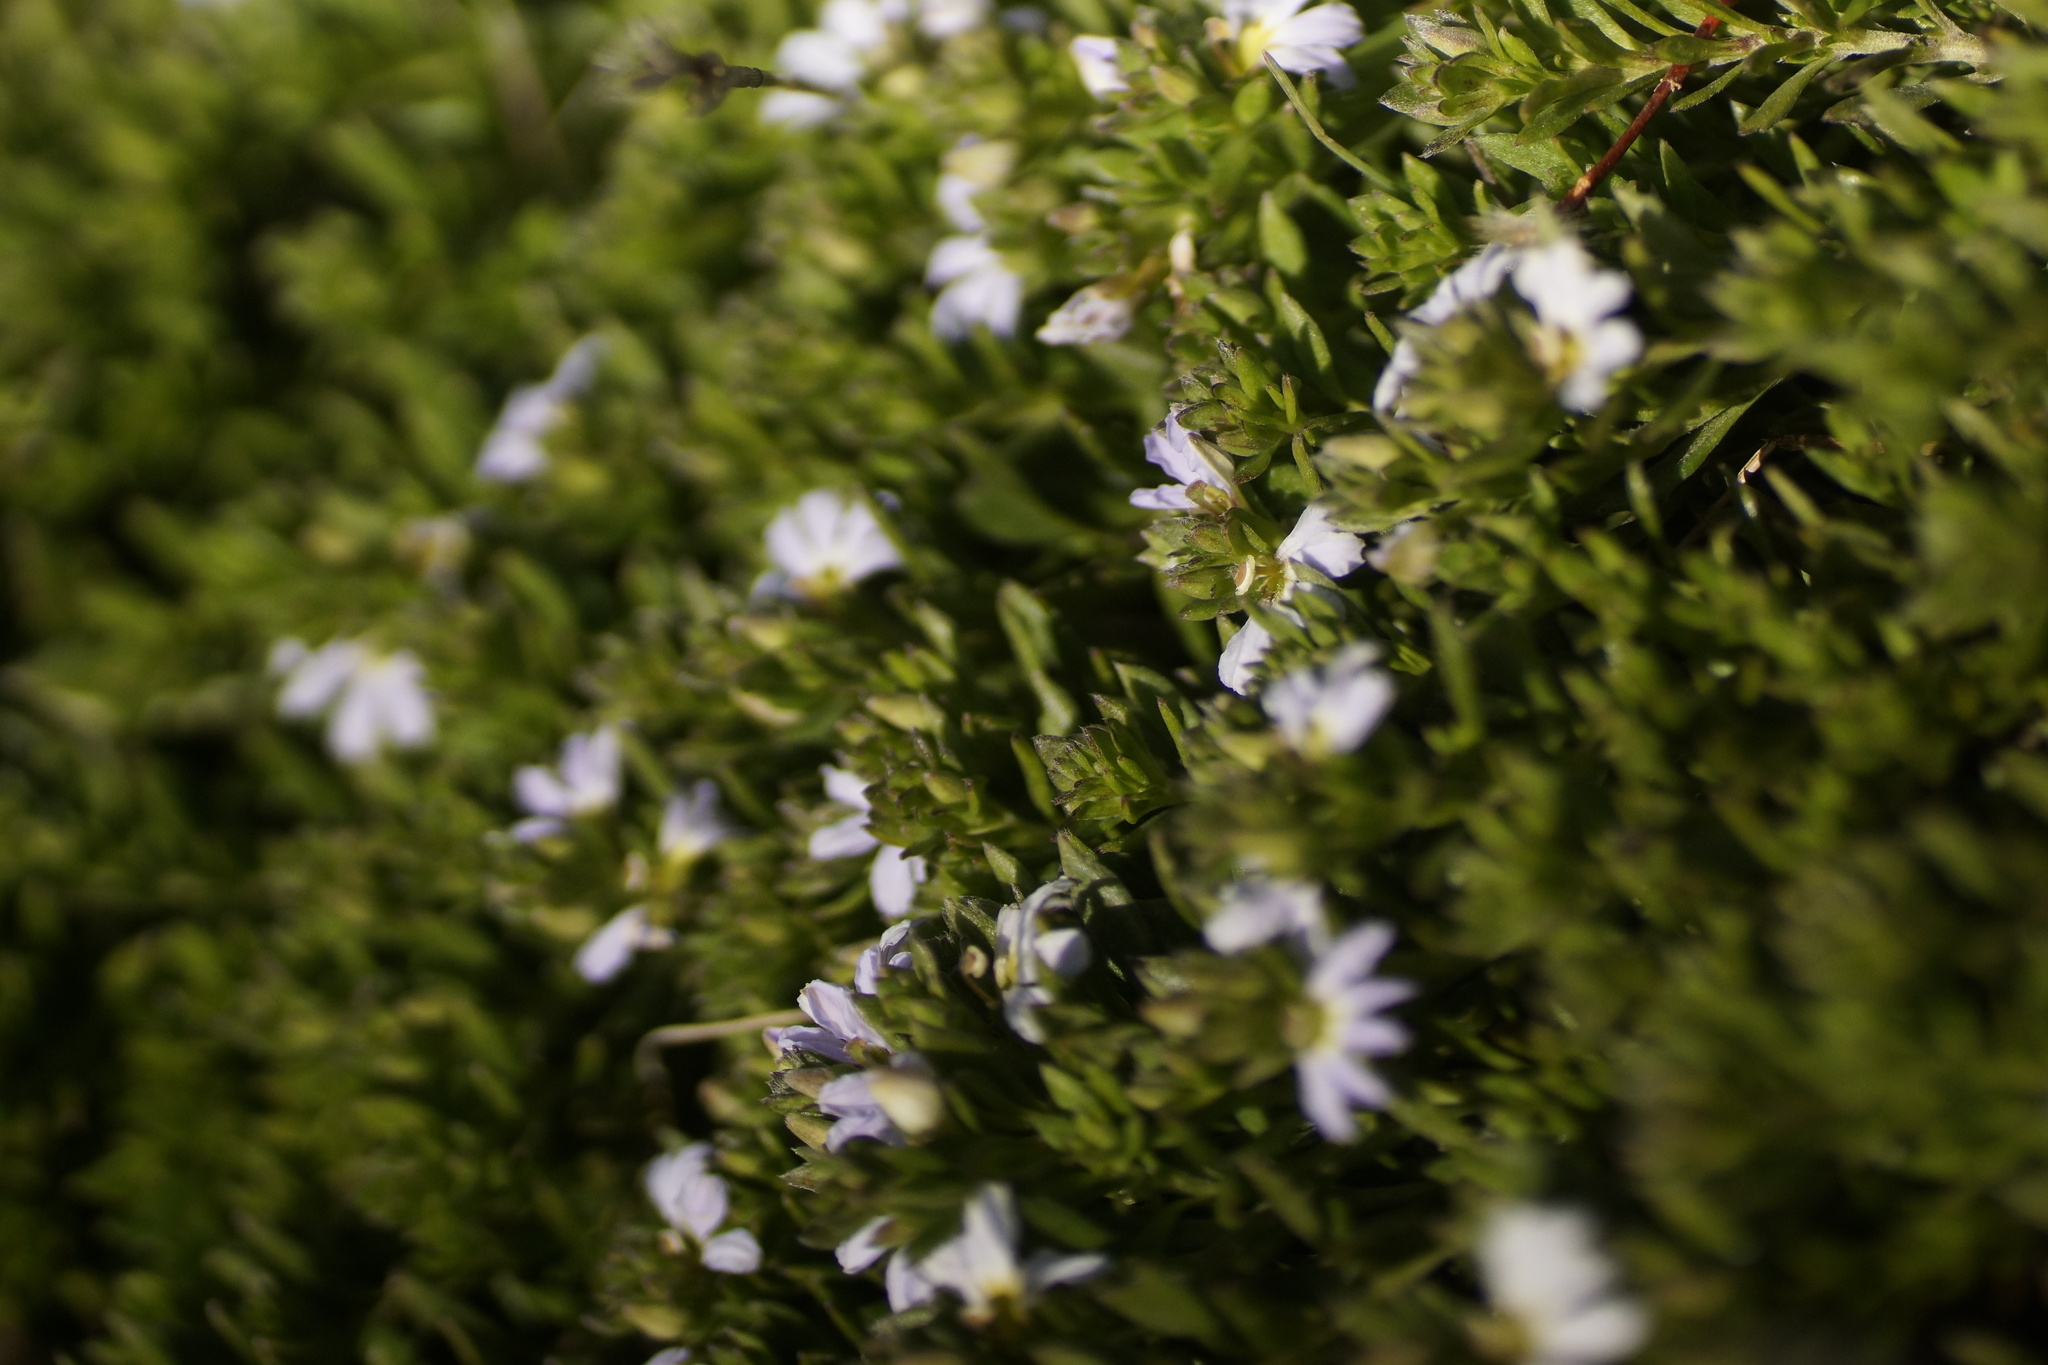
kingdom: Plantae
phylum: Tracheophyta
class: Magnoliopsida
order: Asterales
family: Goodeniaceae
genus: Scaevola
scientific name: Scaevola albida
